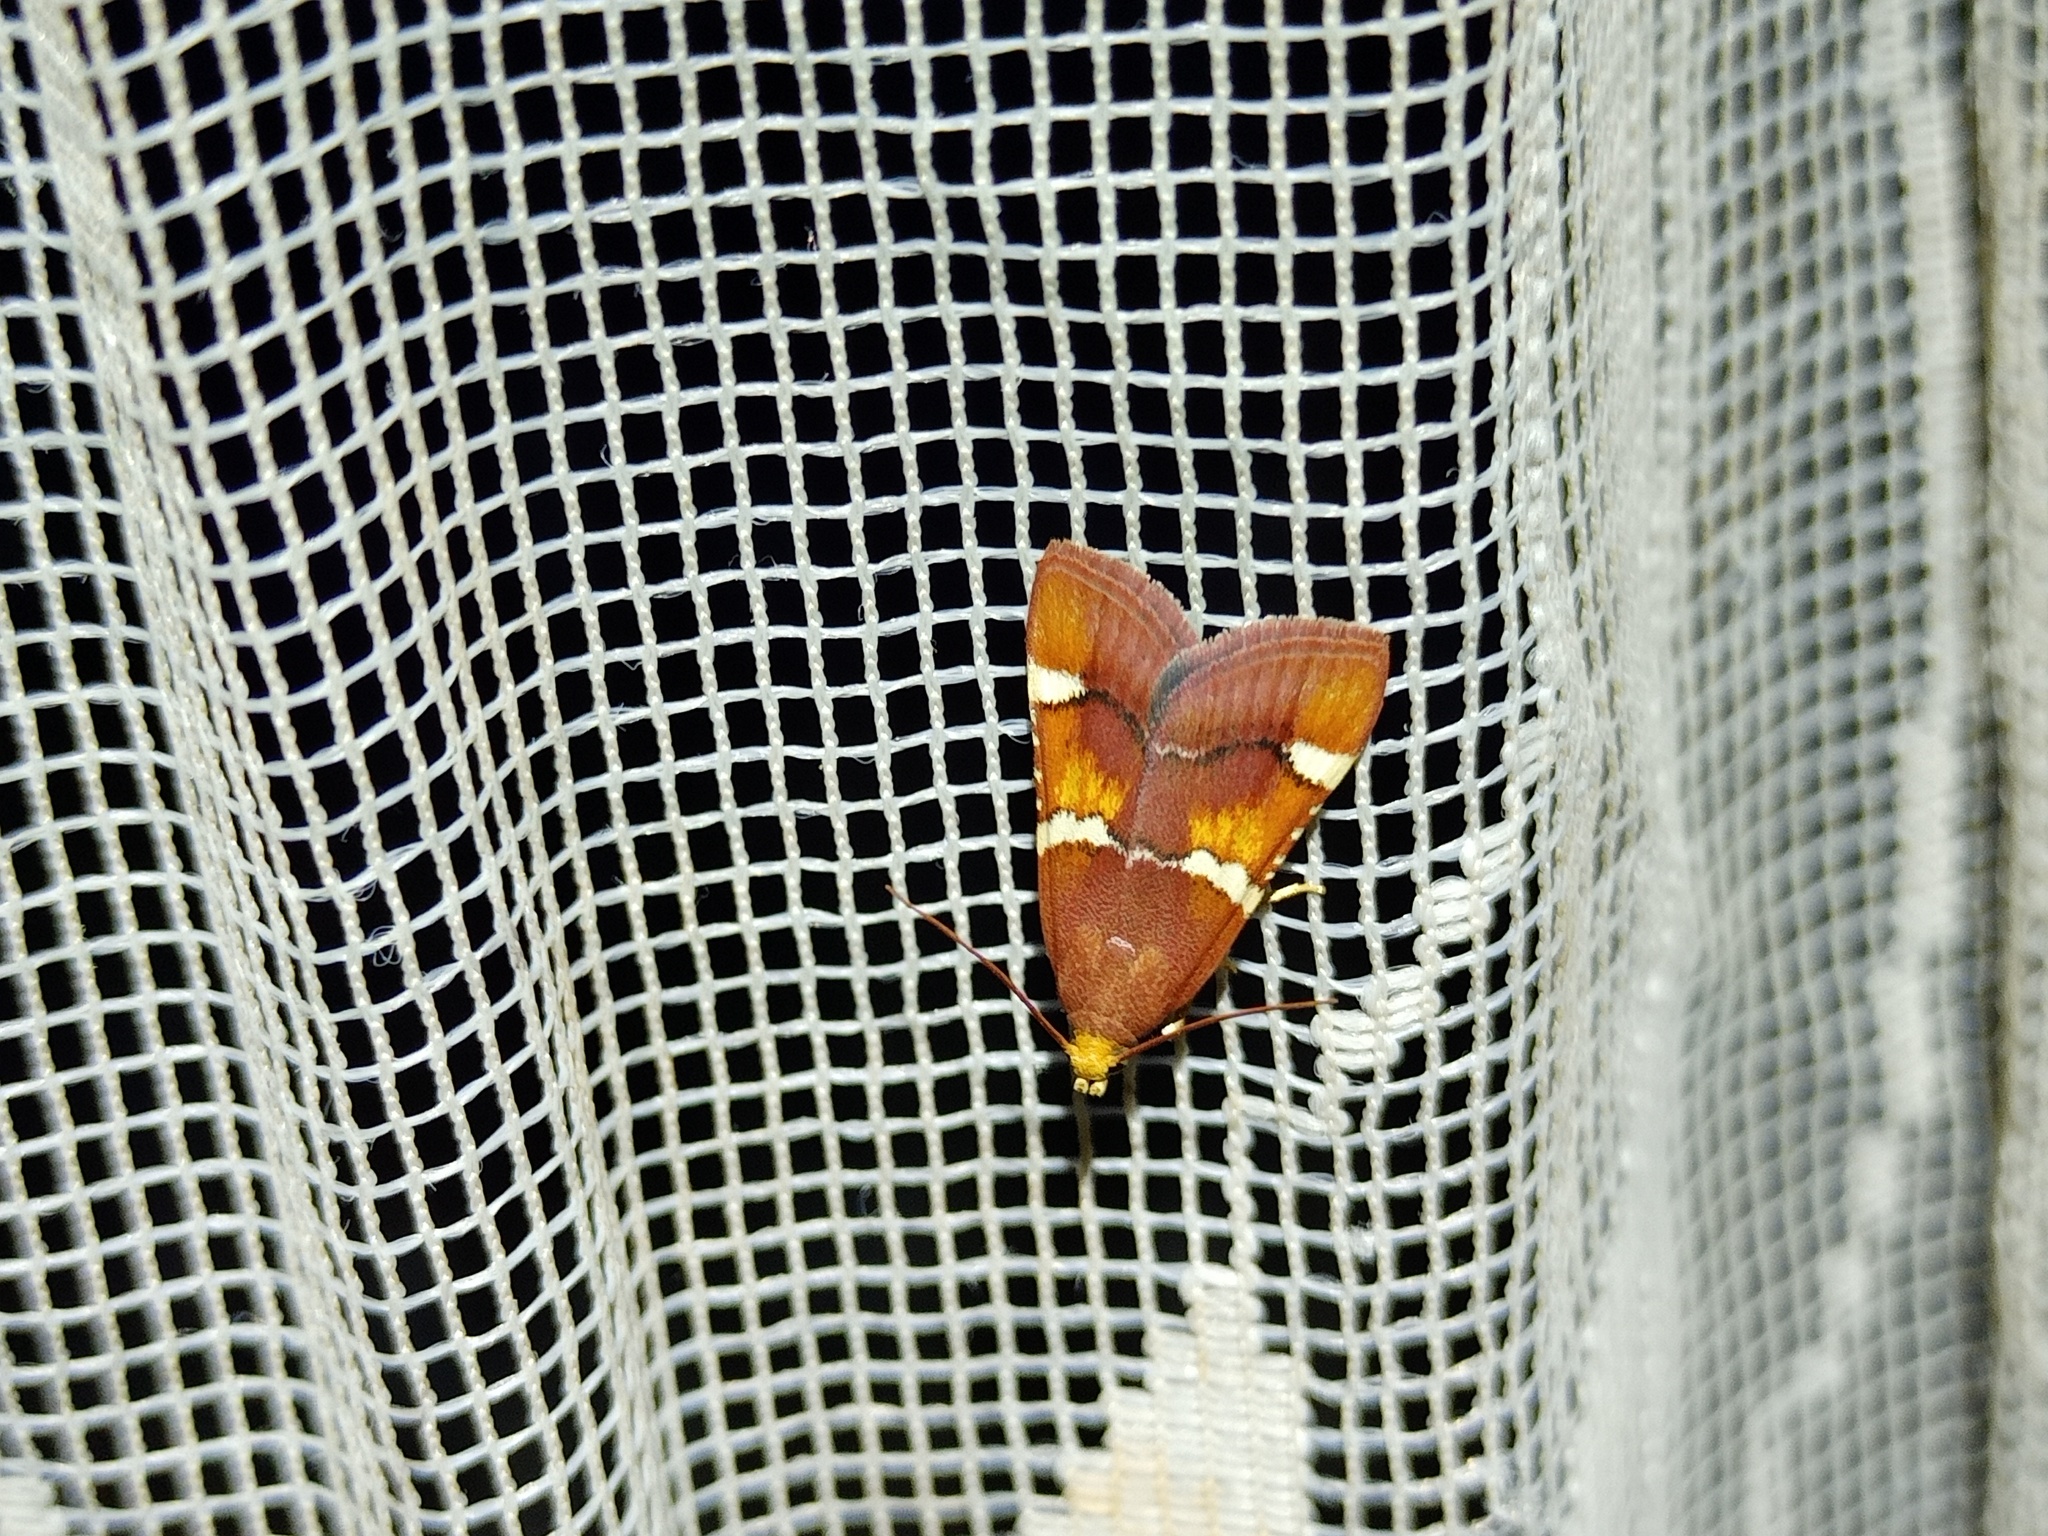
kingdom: Animalia
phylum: Arthropoda
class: Insecta
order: Lepidoptera
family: Pyralidae
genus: Pyralis
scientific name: Pyralis regalis
